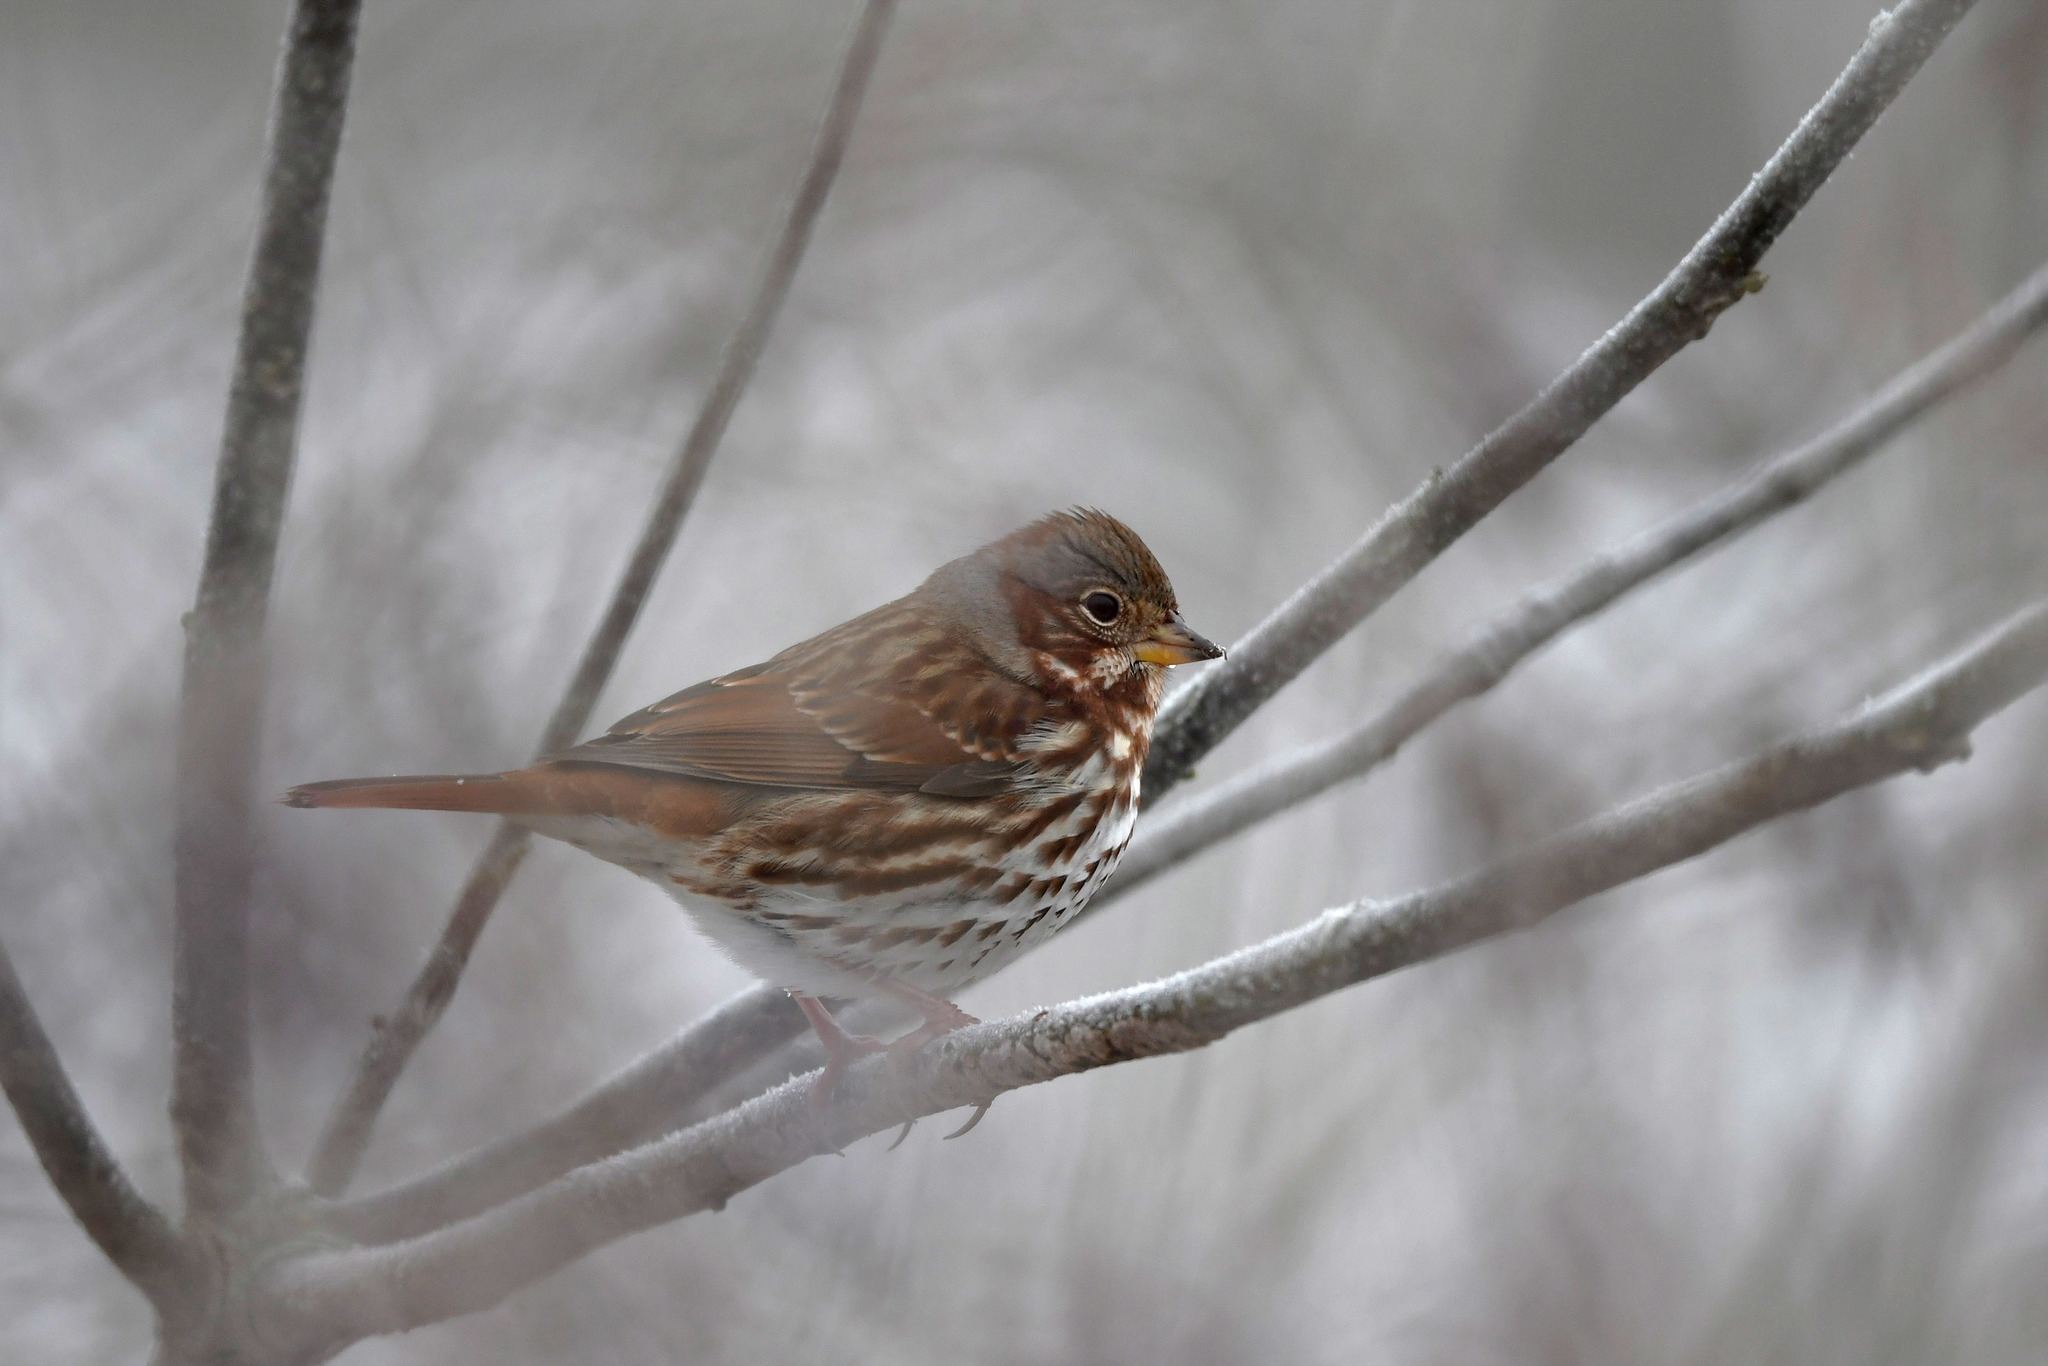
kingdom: Animalia
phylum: Chordata
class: Aves
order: Passeriformes
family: Passerellidae
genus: Passerella
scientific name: Passerella iliaca
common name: Fox sparrow
